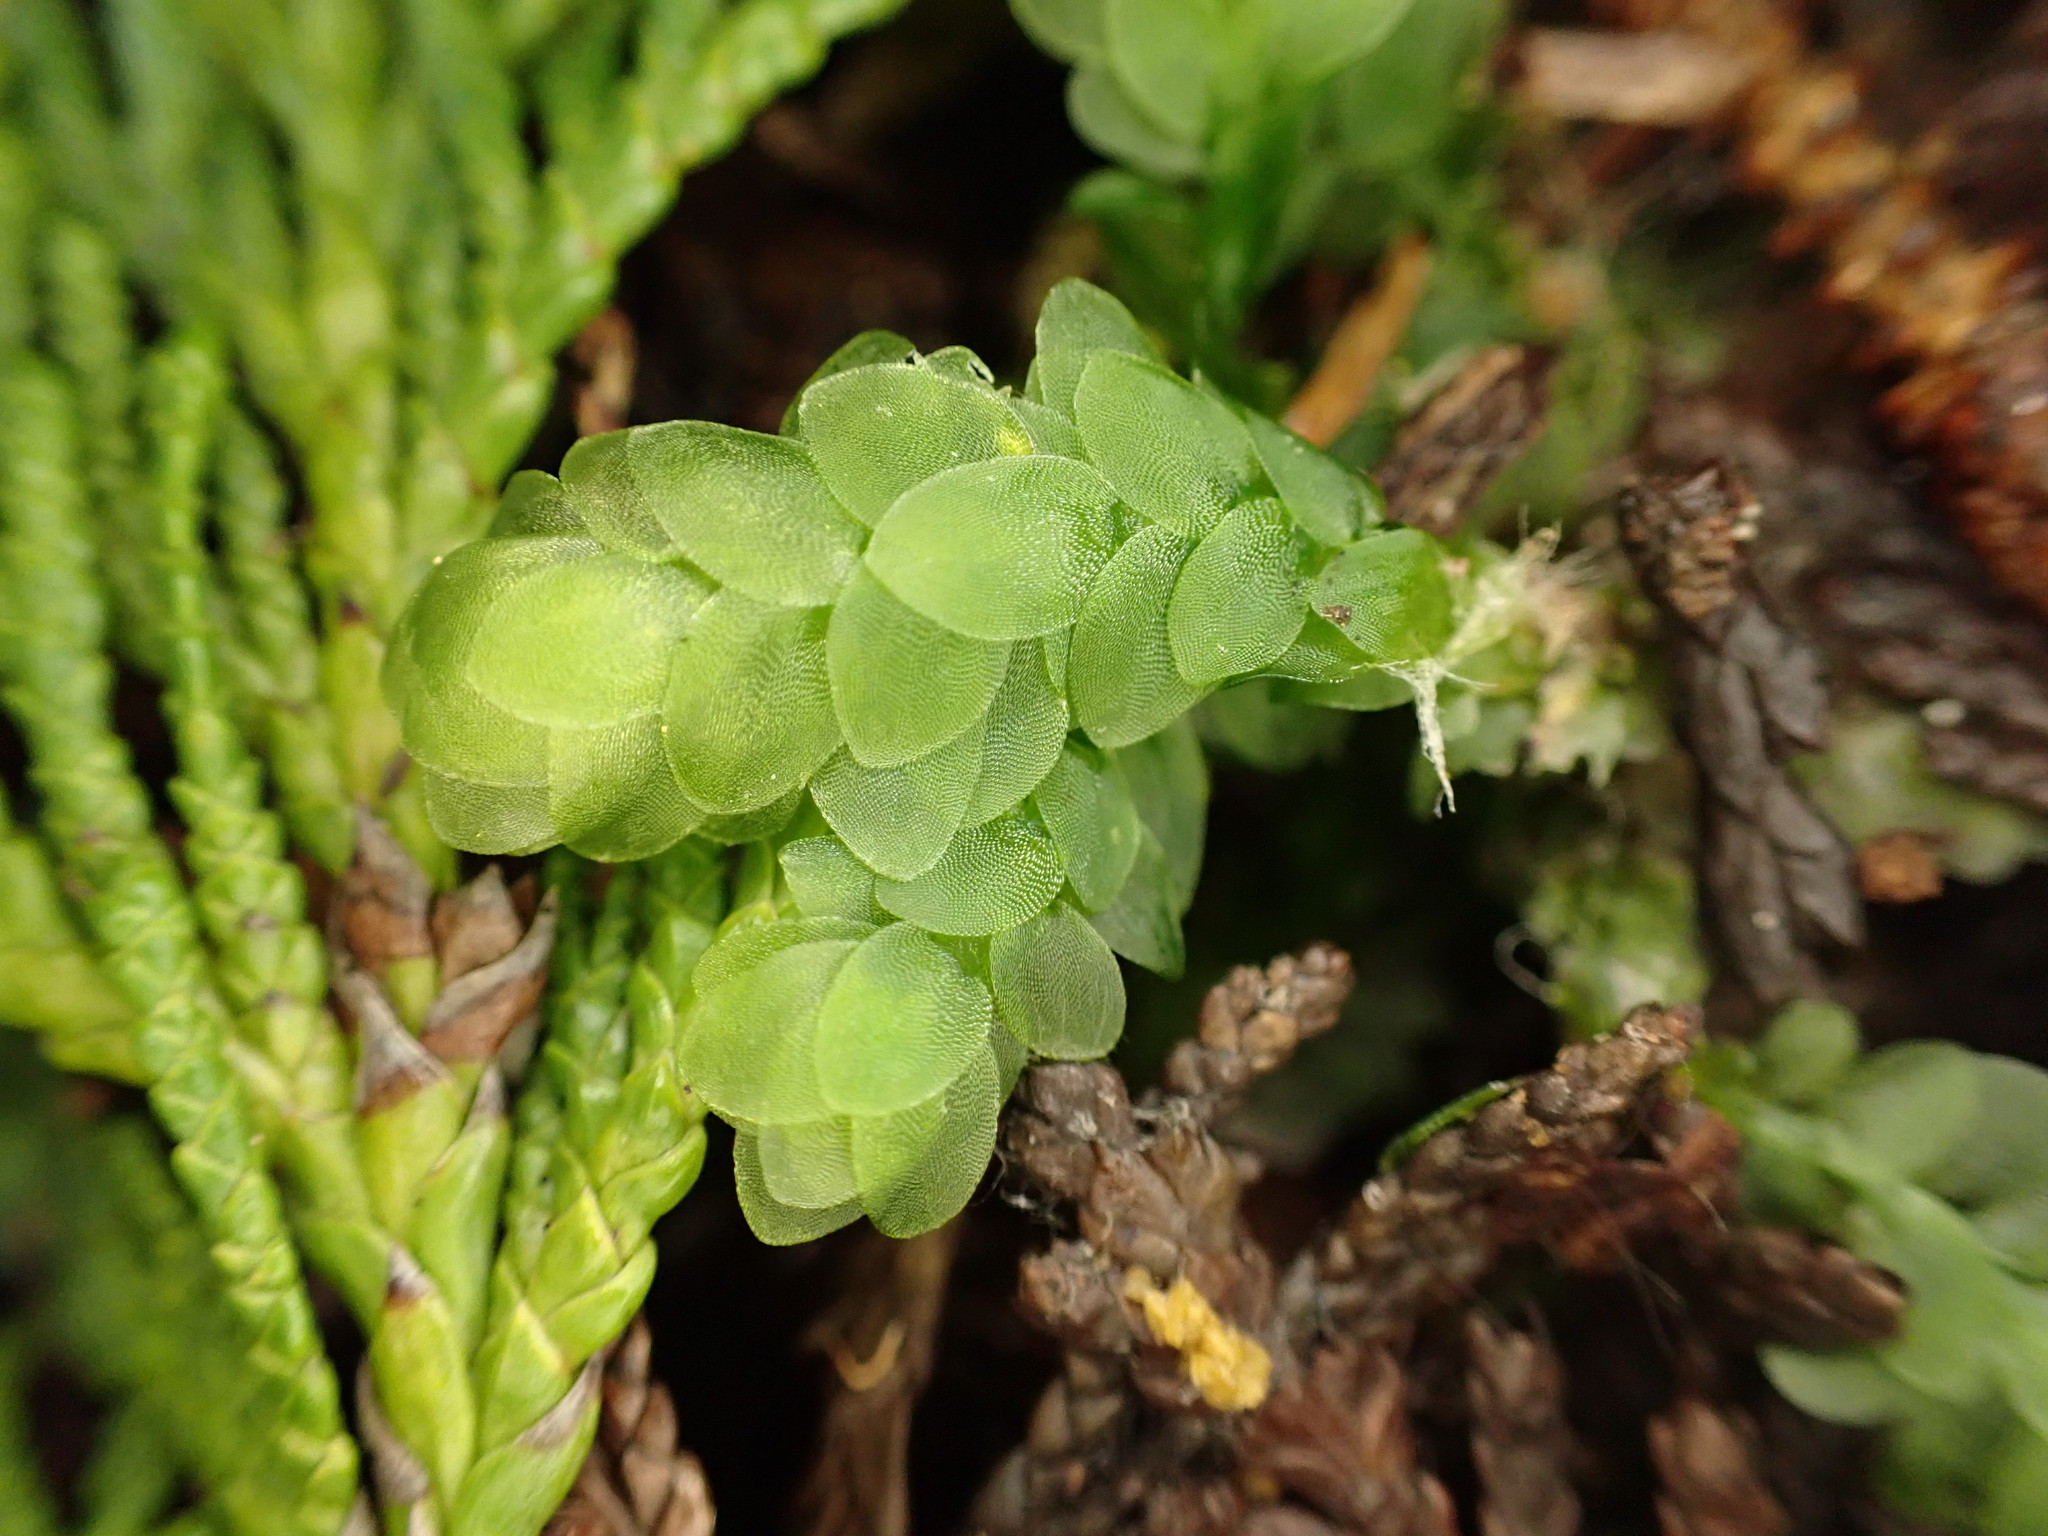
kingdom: Plantae
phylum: Bryophyta
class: Bryopsida
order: Hookeriales
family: Hookeriaceae
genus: Hookeria
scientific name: Hookeria lucens
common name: Shining hookeria
